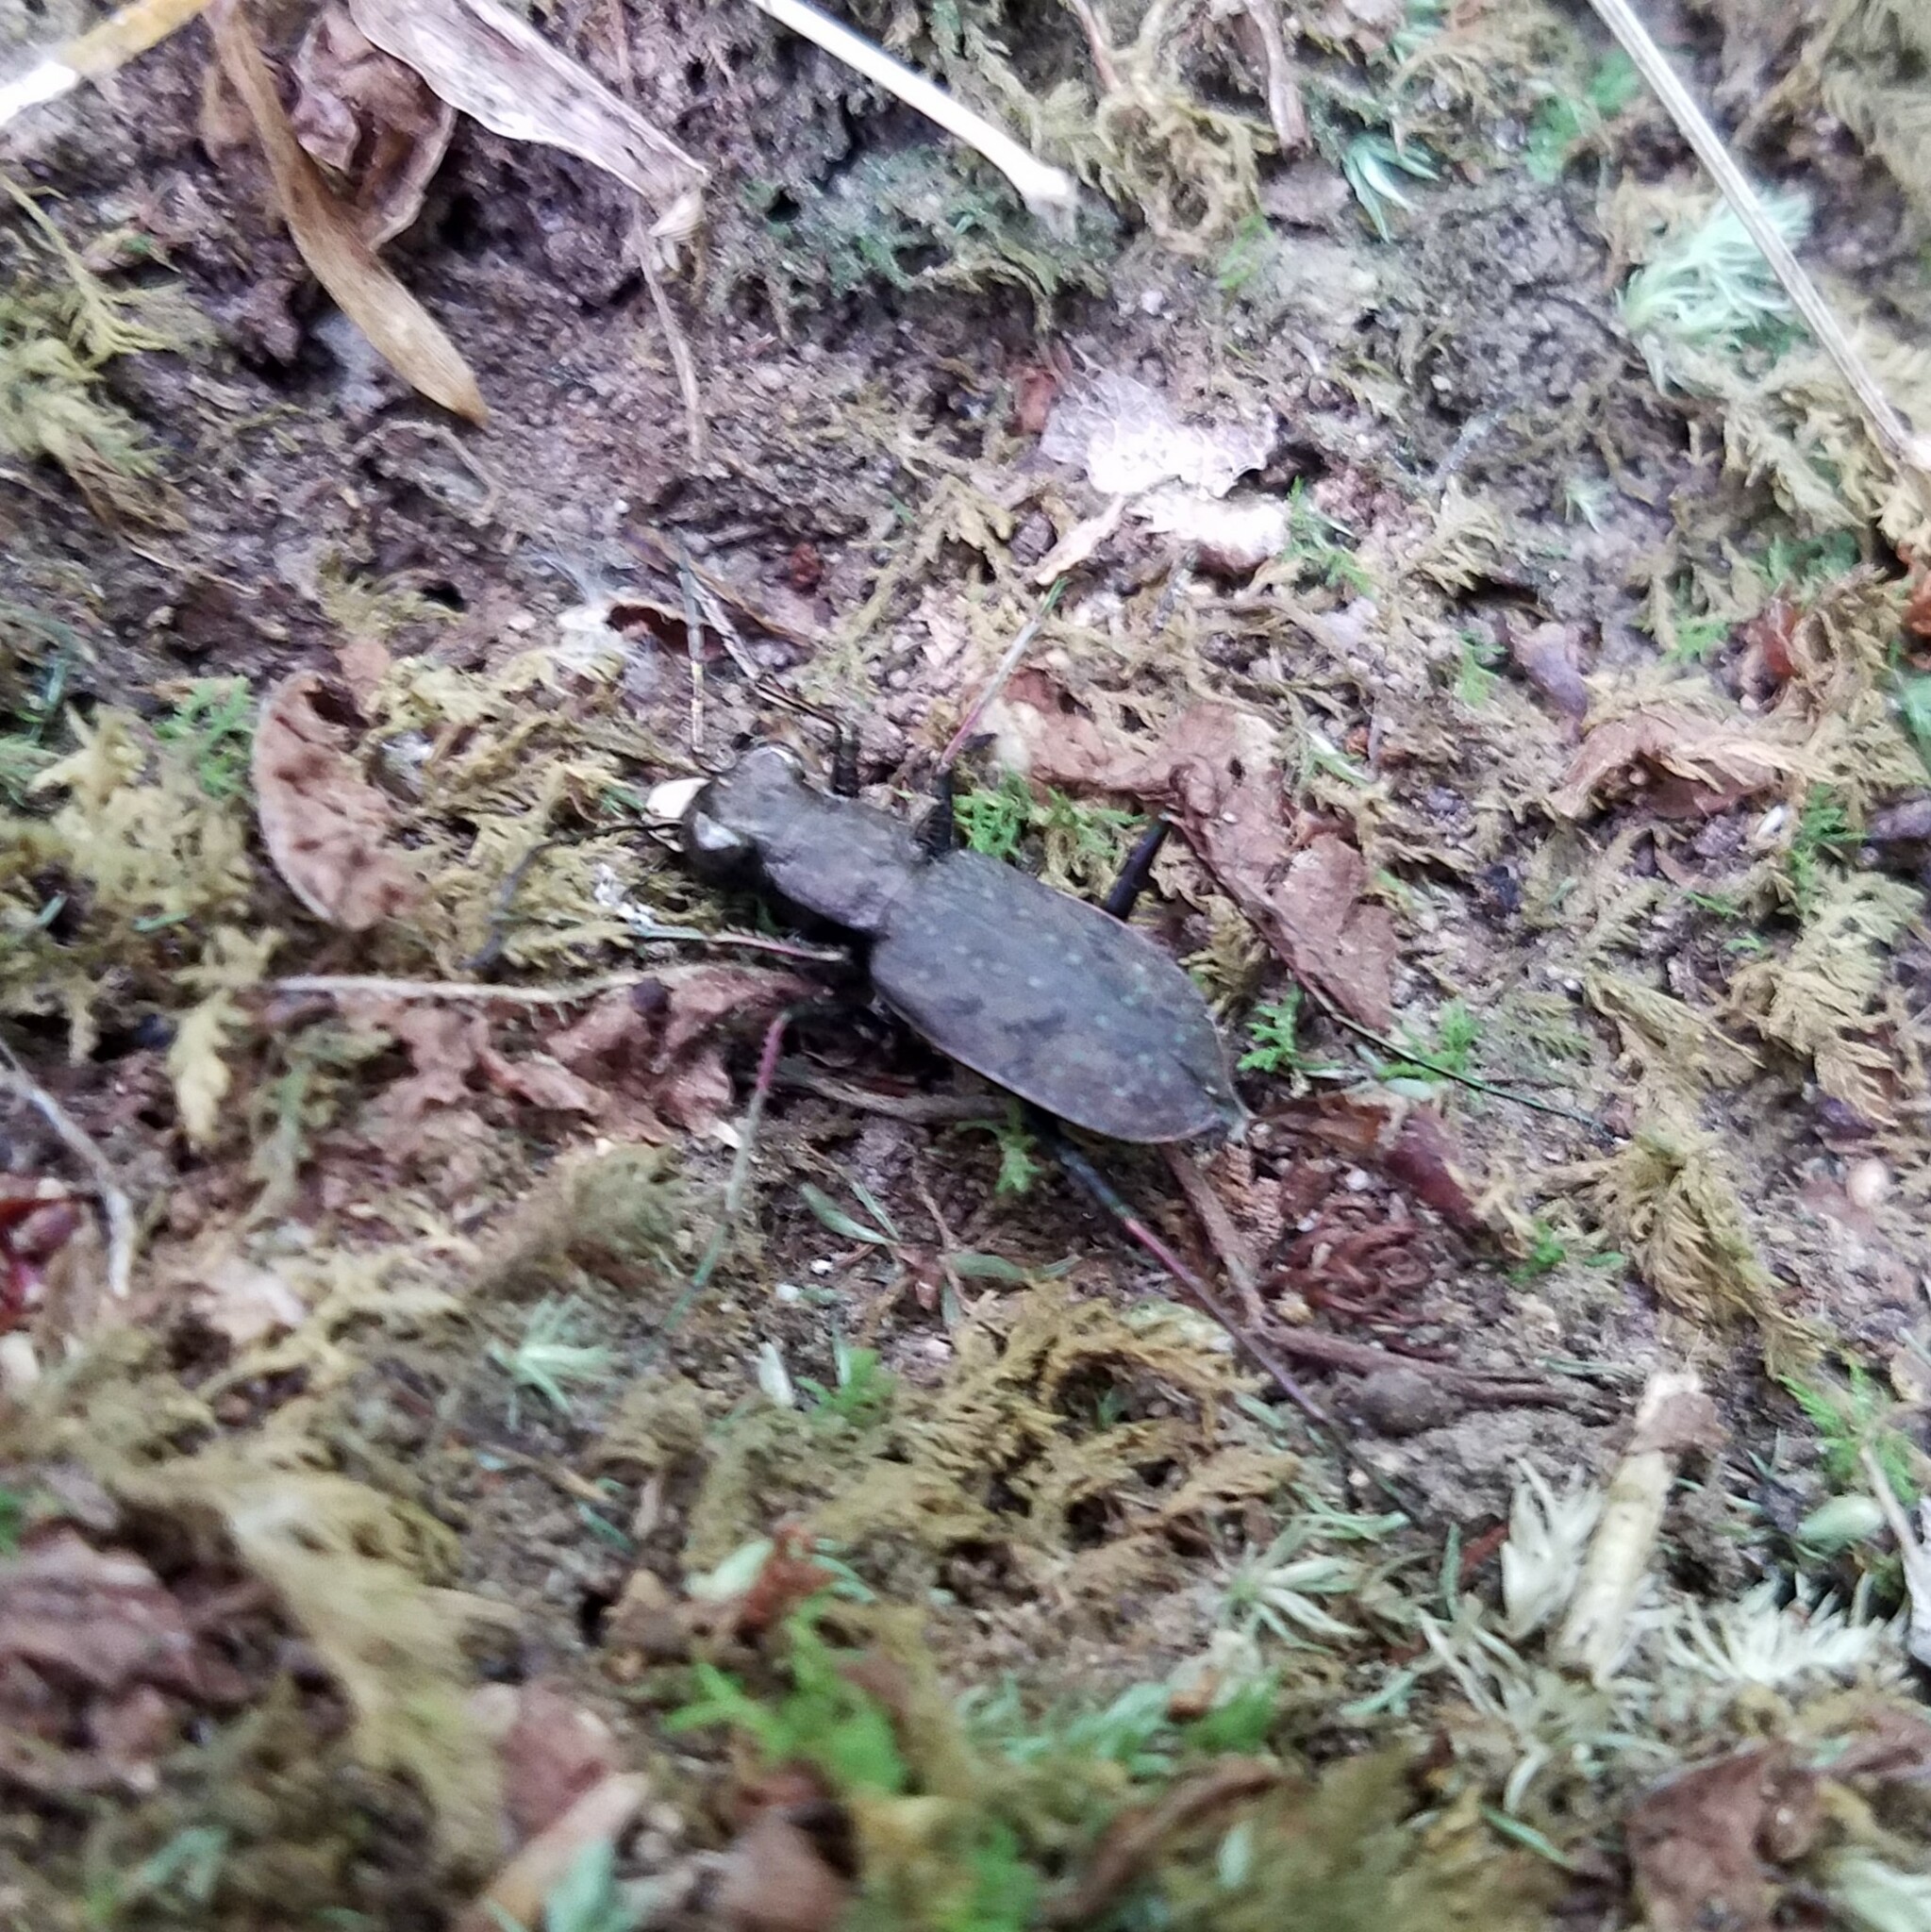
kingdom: Animalia
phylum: Arthropoda
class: Insecta
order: Coleoptera
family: Carabidae
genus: Cylindera
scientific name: Cylindera unipunctata
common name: One-spotted tiger beetle
